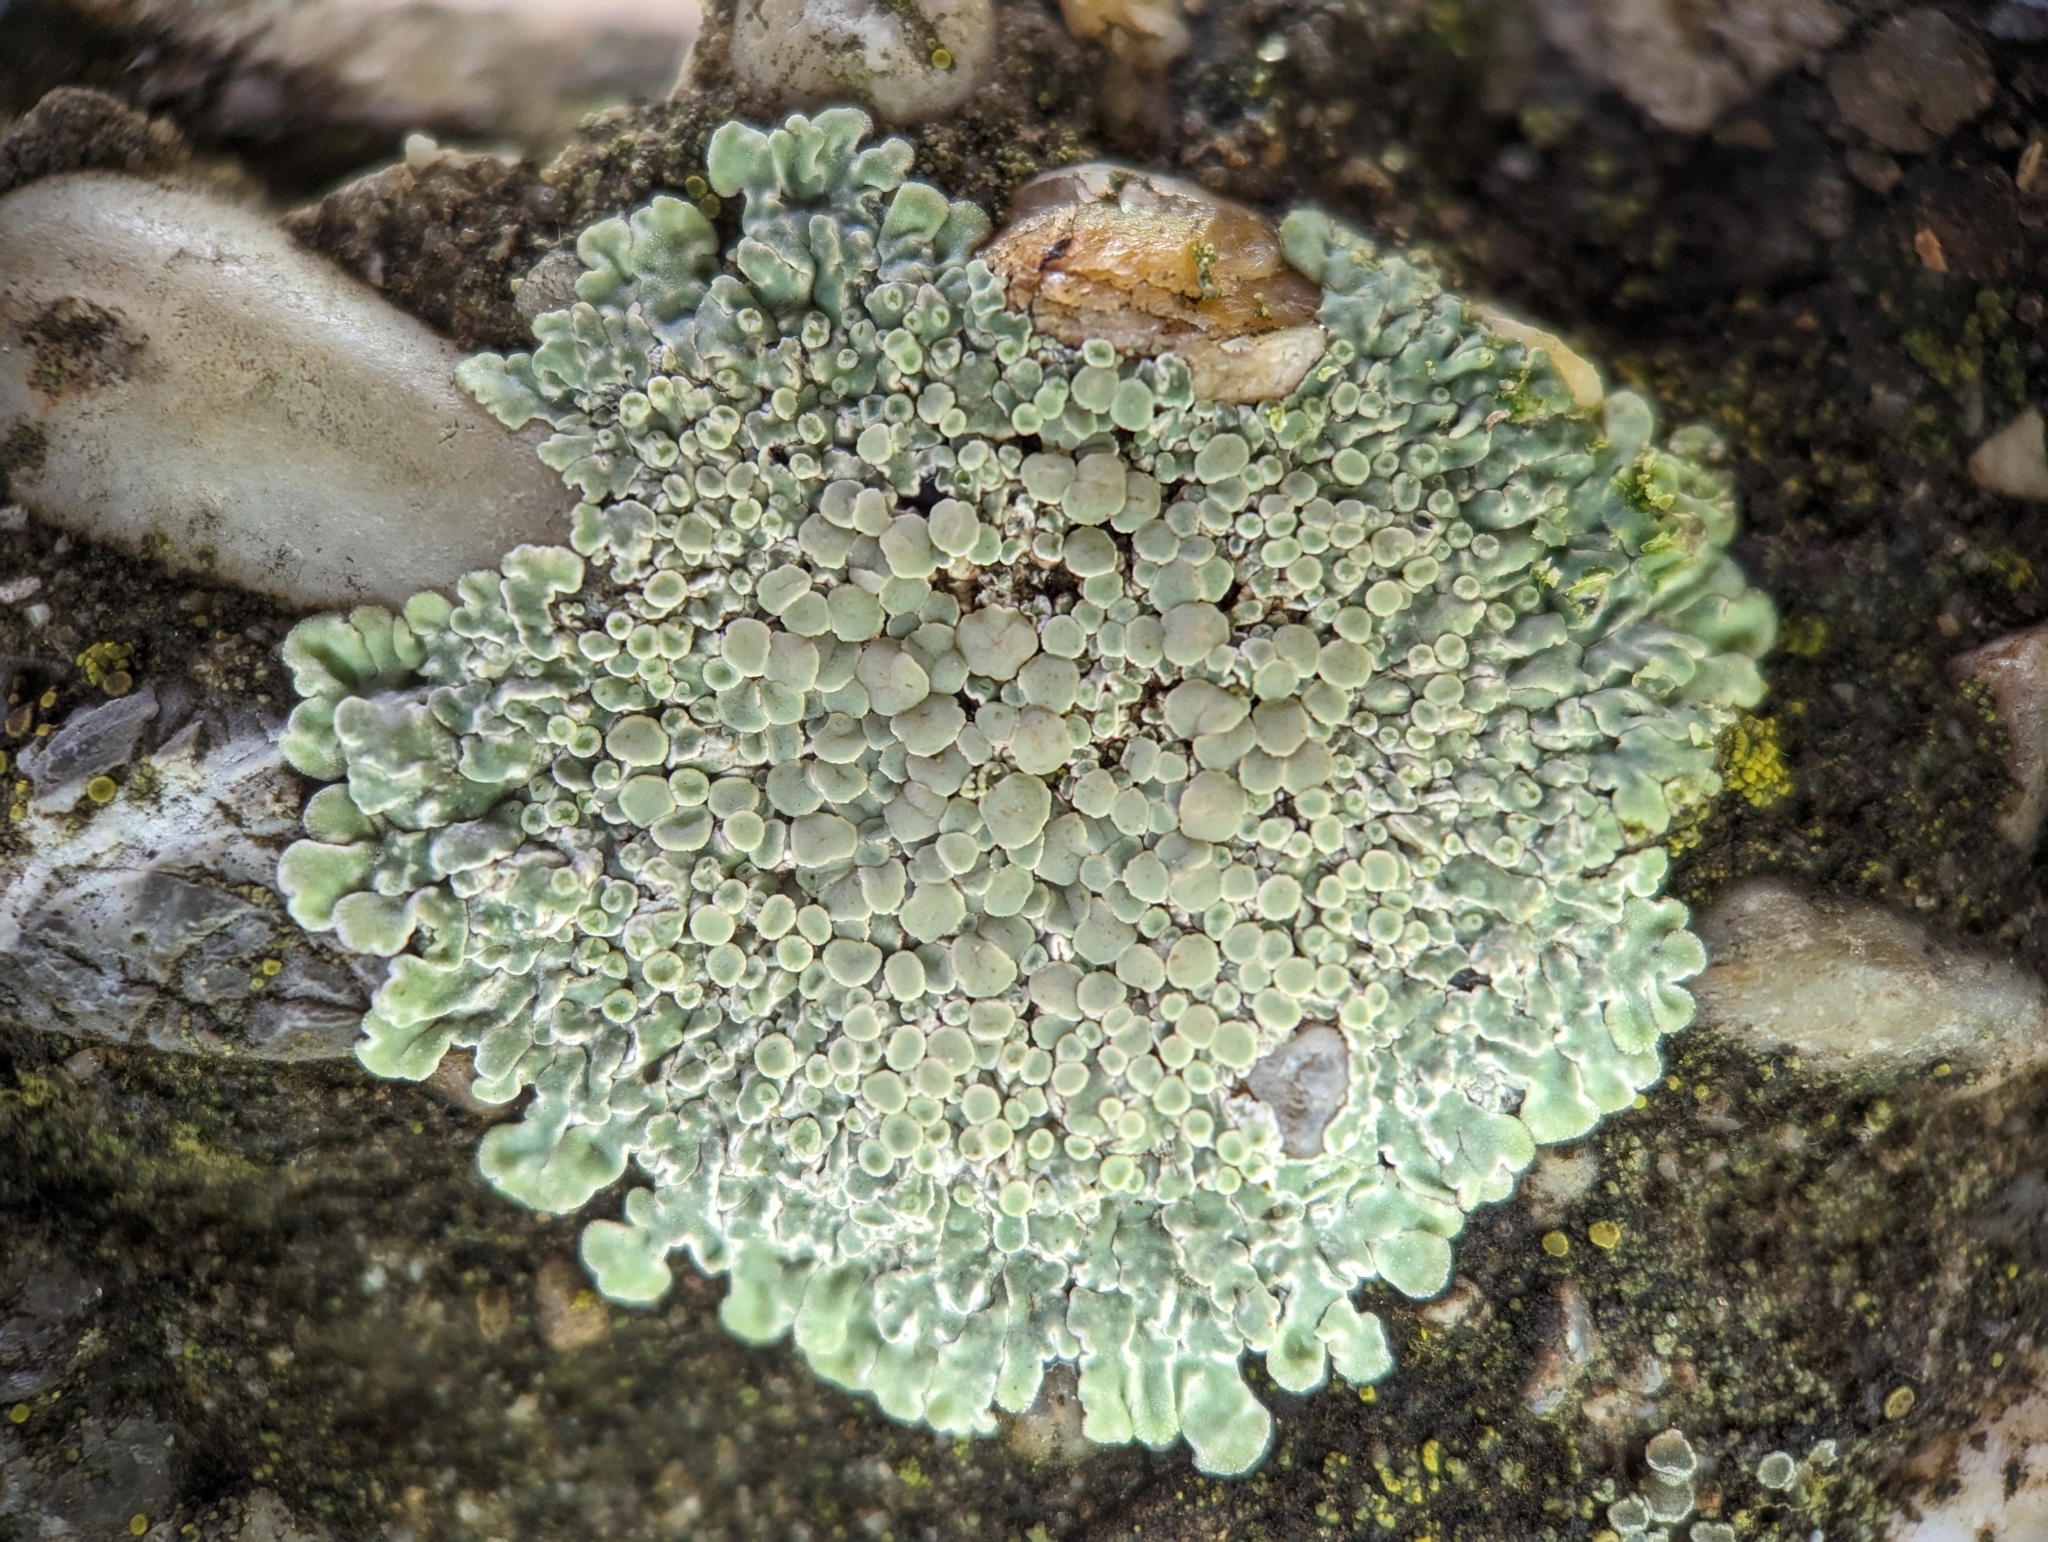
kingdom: Fungi
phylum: Ascomycota
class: Lecanoromycetes
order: Lecanorales
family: Lecanoraceae
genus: Protoparmeliopsis
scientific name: Protoparmeliopsis muralis
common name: Stonewall rim lichen
